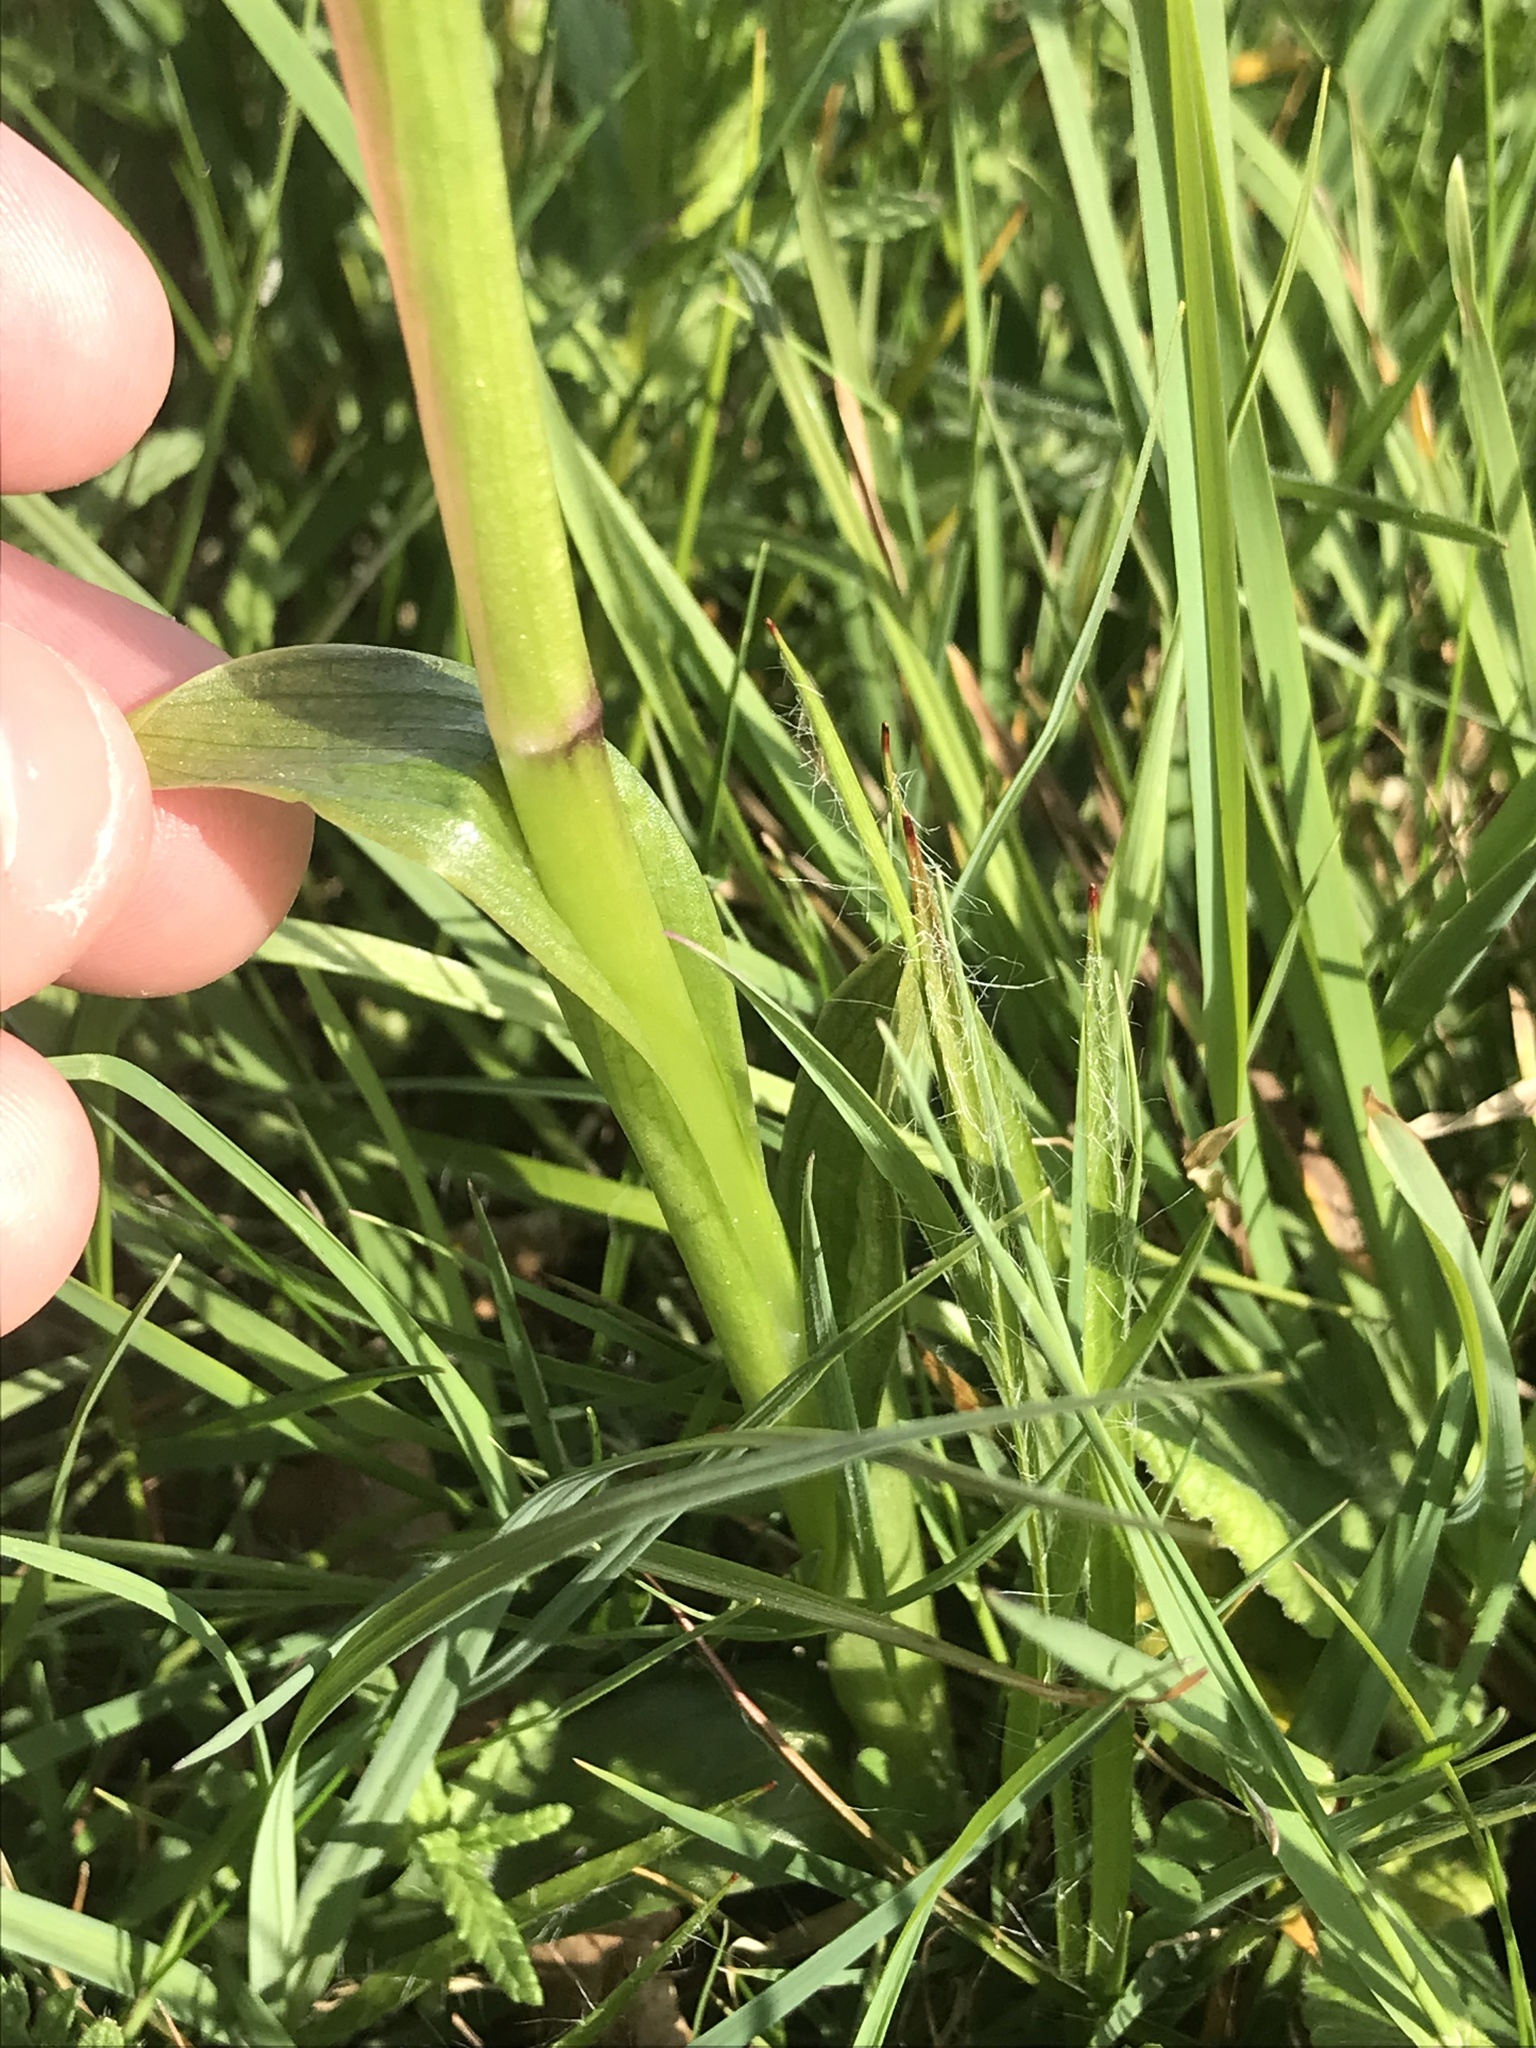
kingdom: Plantae
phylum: Tracheophyta
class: Liliopsida
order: Asparagales
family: Orchidaceae
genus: Anacamptis
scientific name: Anacamptis morio
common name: Green-winged orchid
